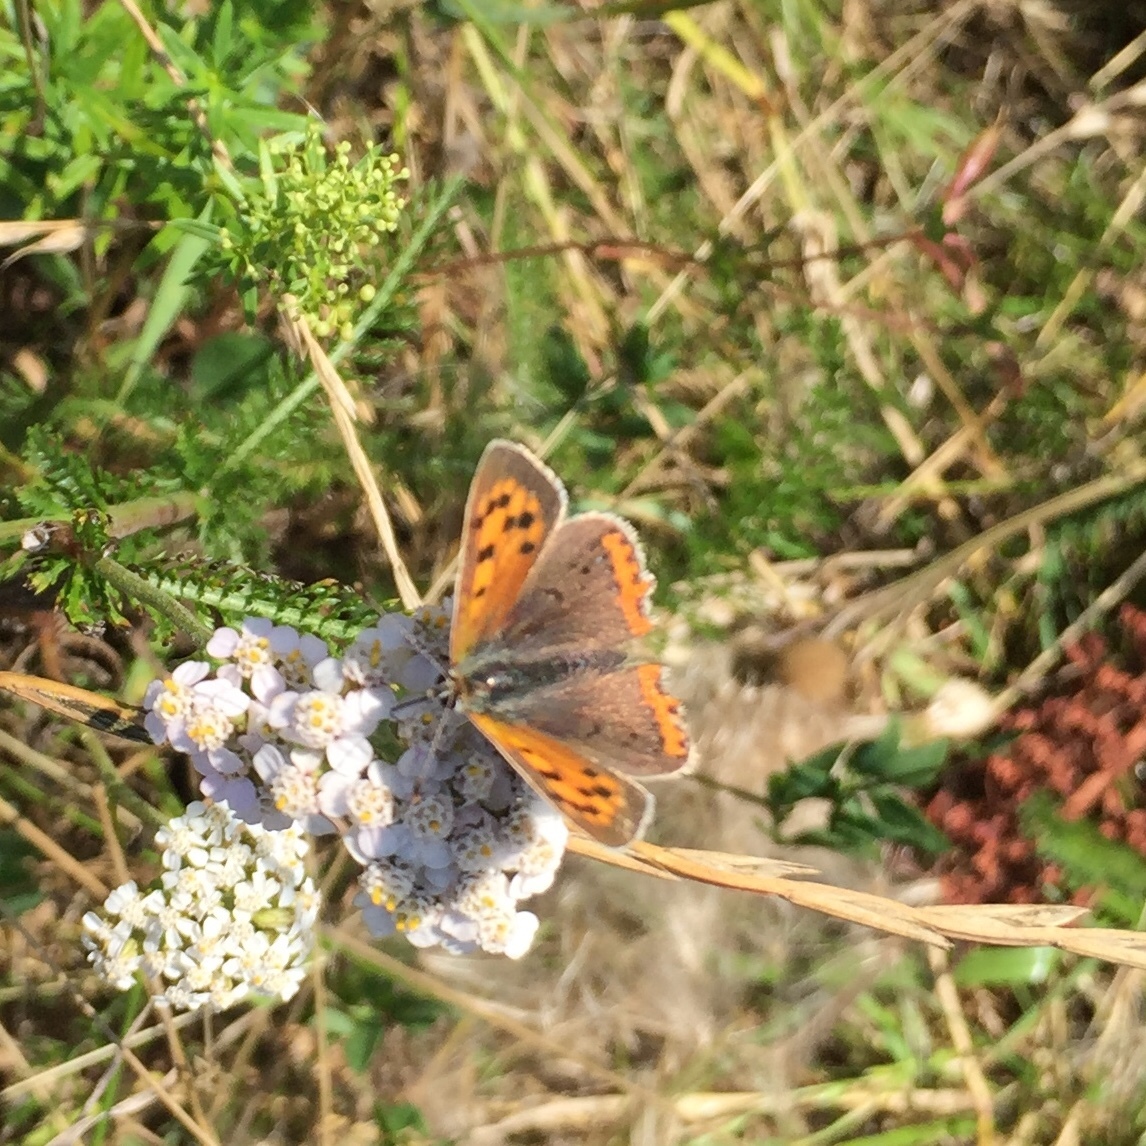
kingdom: Animalia
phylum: Arthropoda
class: Insecta
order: Lepidoptera
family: Lycaenidae
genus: Lycaena
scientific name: Lycaena phlaeas
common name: Small copper
